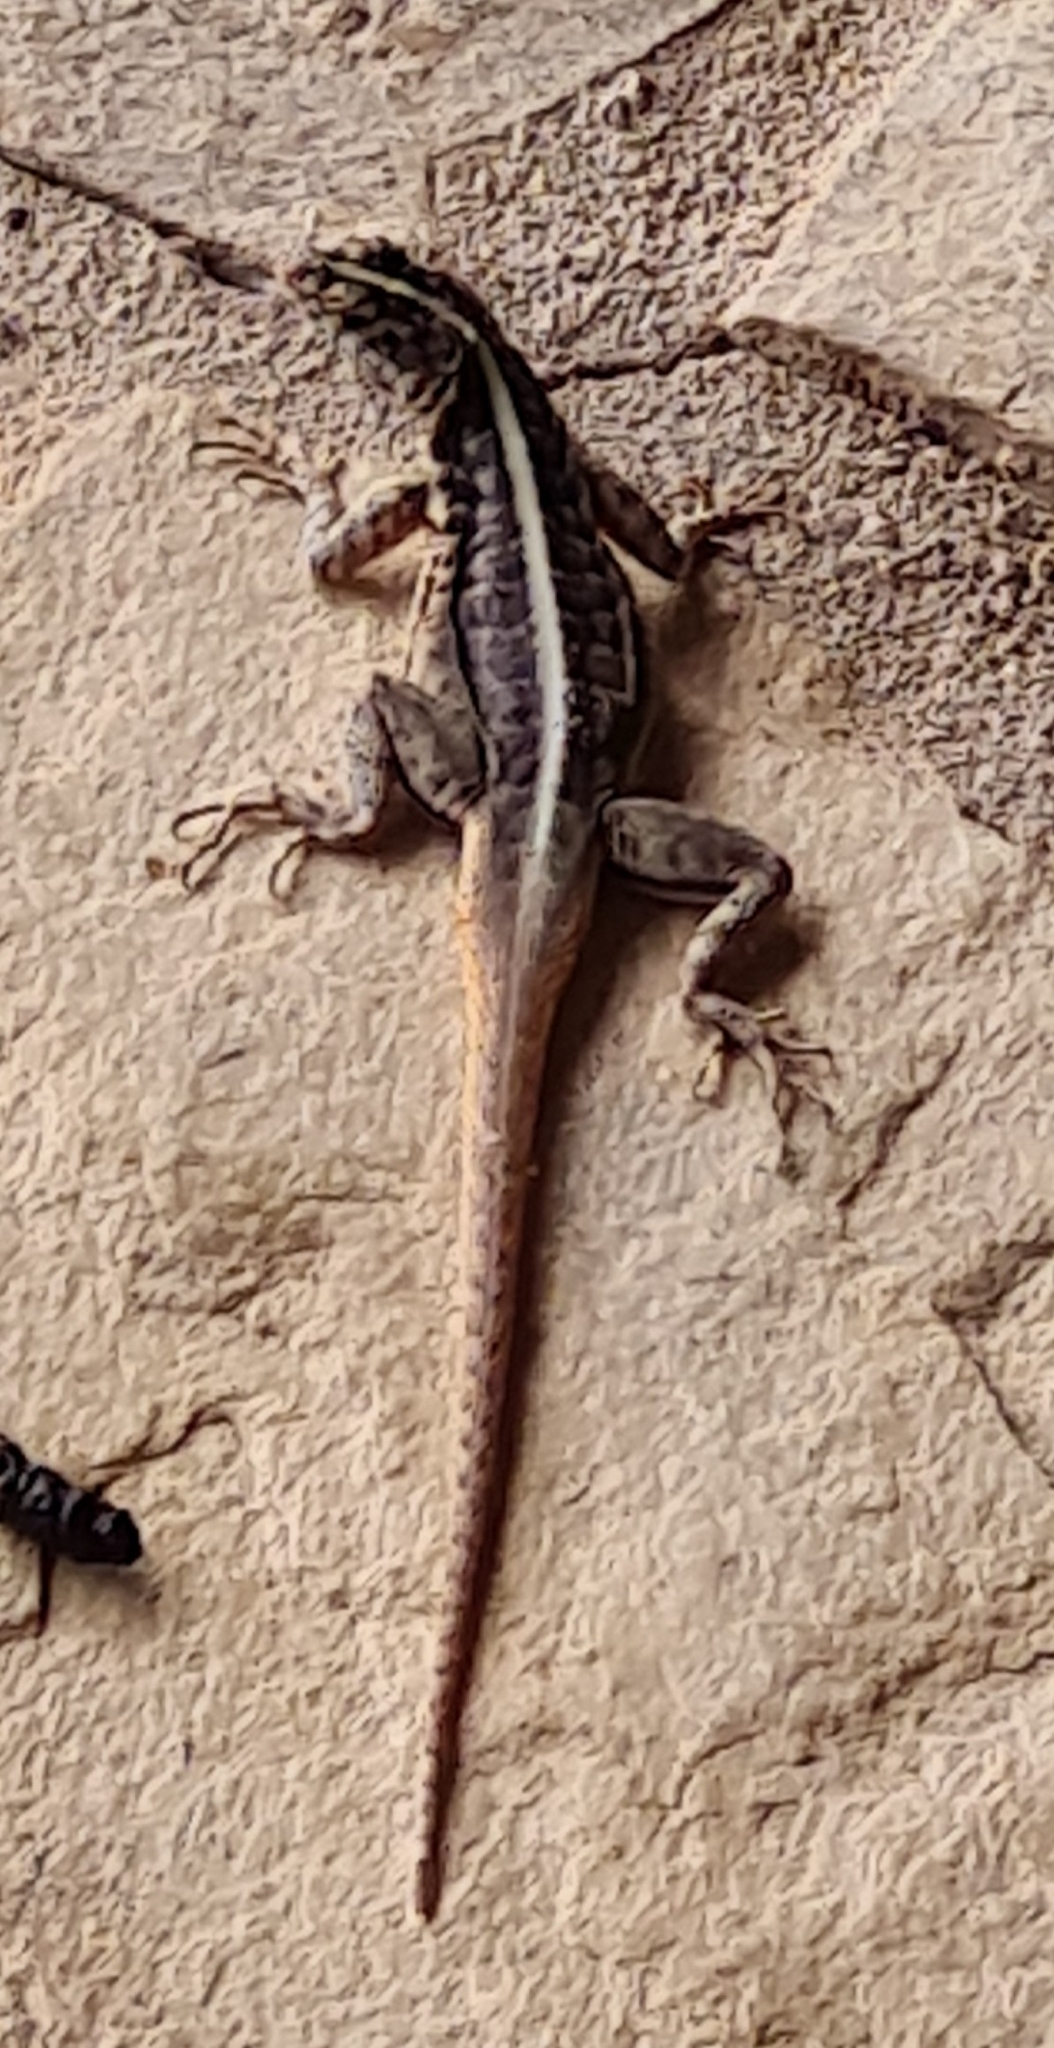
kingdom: Animalia
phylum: Chordata
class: Squamata
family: Tropiduridae
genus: Tropidurus
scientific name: Tropidurus semitaeniatus
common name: Striped lava lizard
